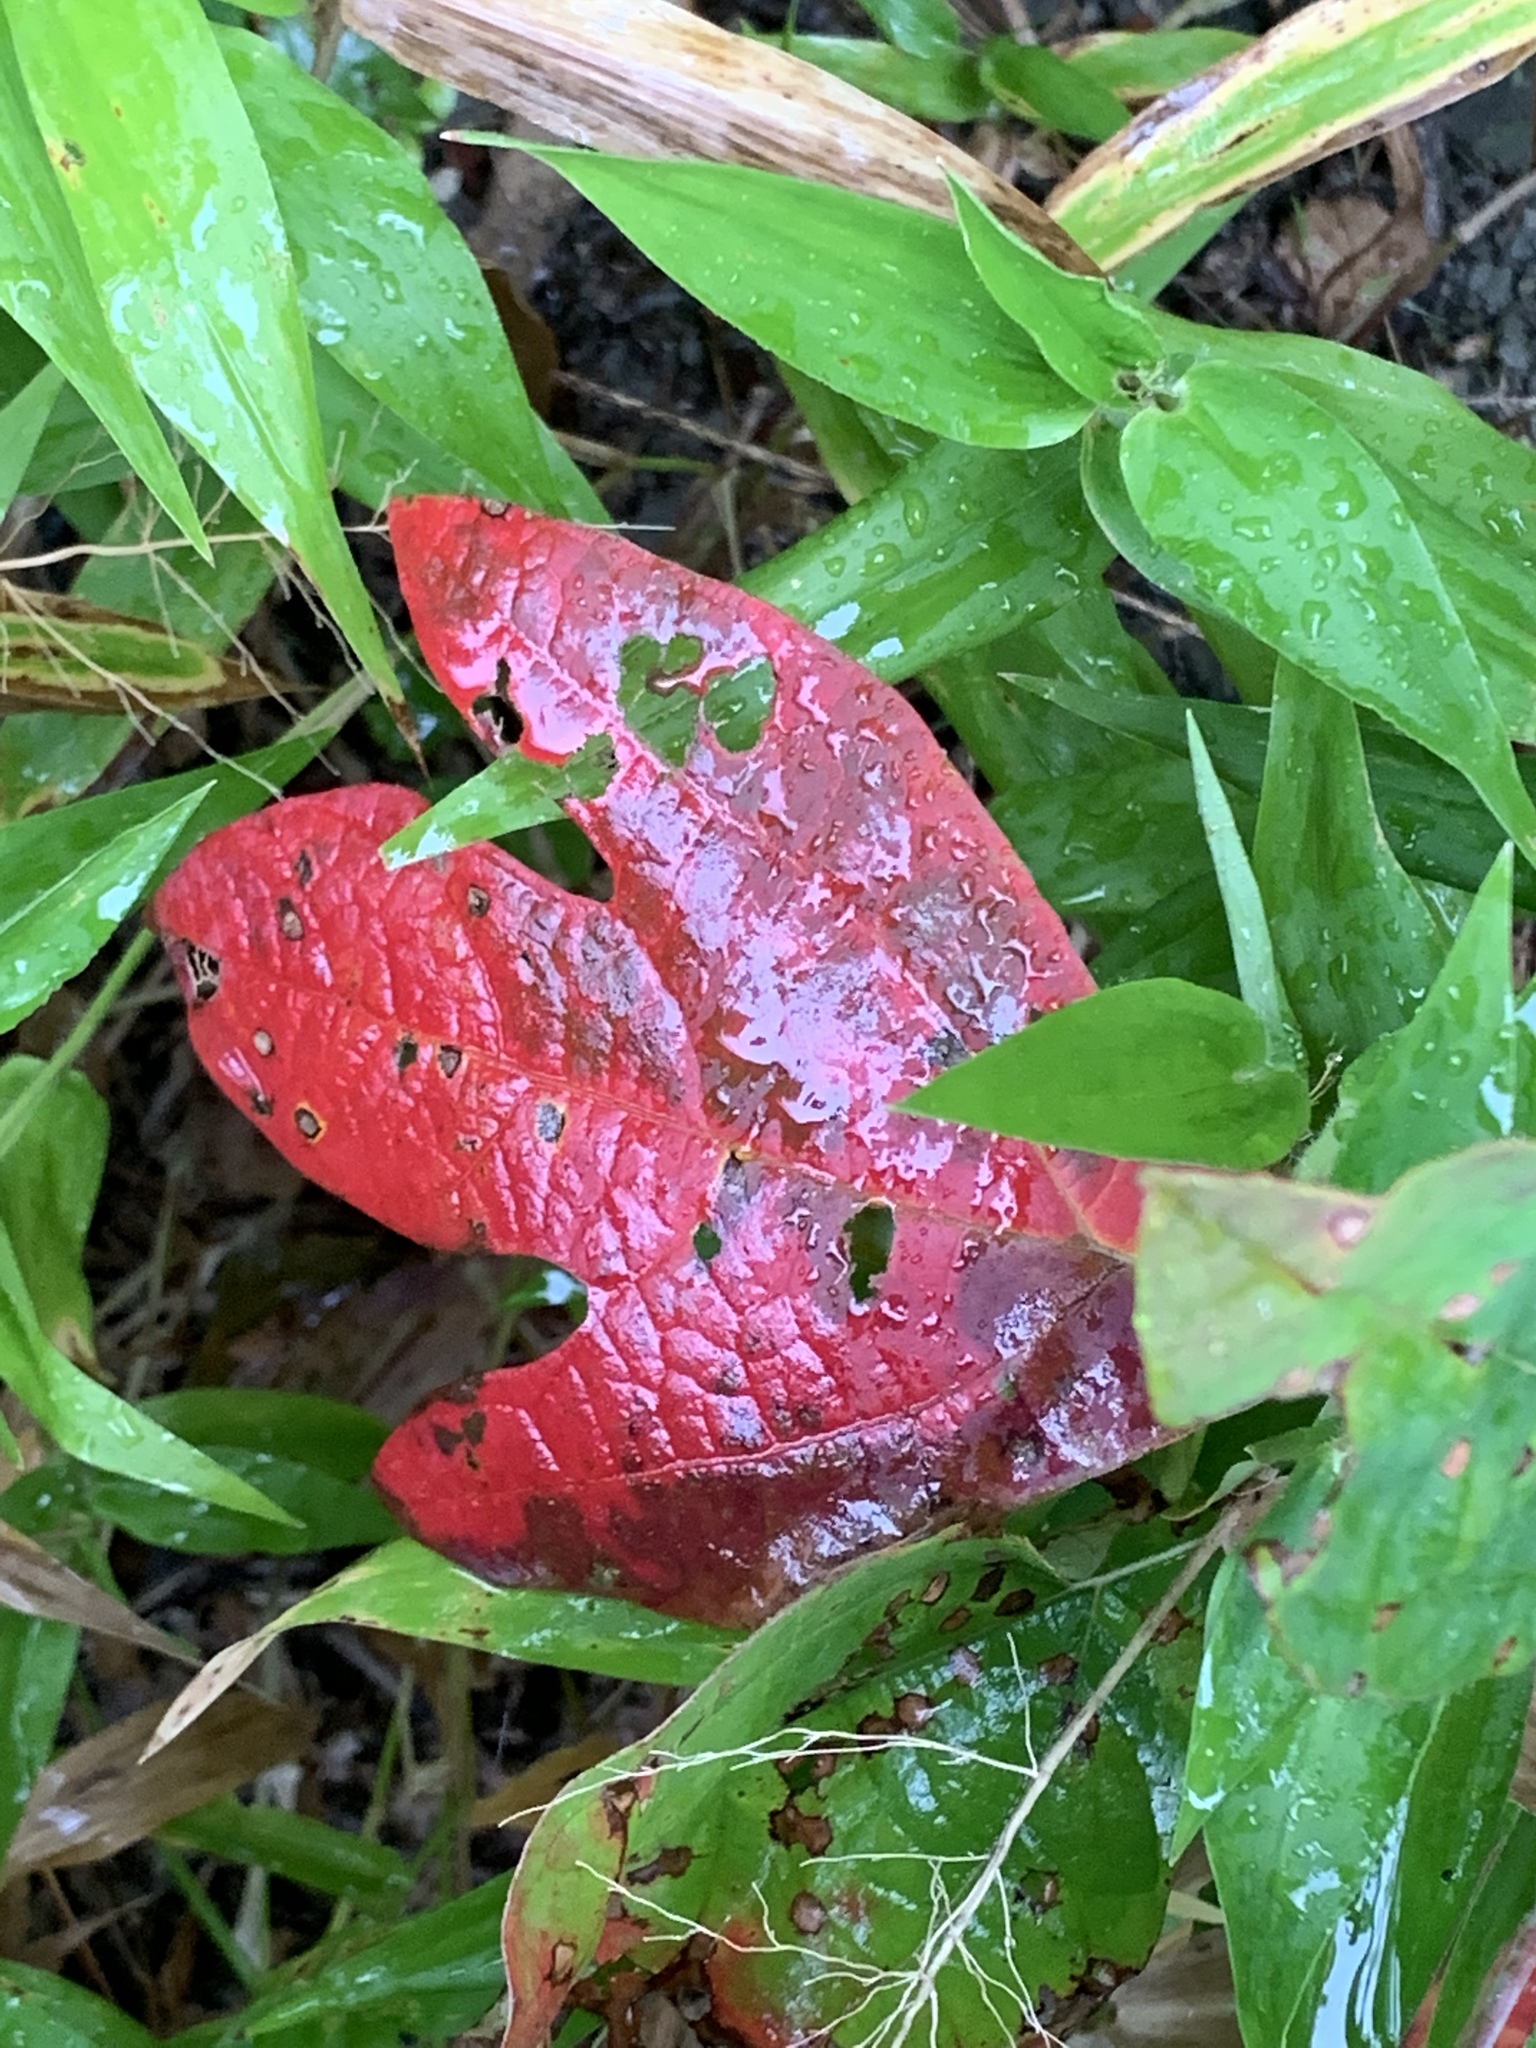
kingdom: Plantae
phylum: Tracheophyta
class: Magnoliopsida
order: Laurales
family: Lauraceae
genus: Sassafras
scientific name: Sassafras albidum
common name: Sassafras
